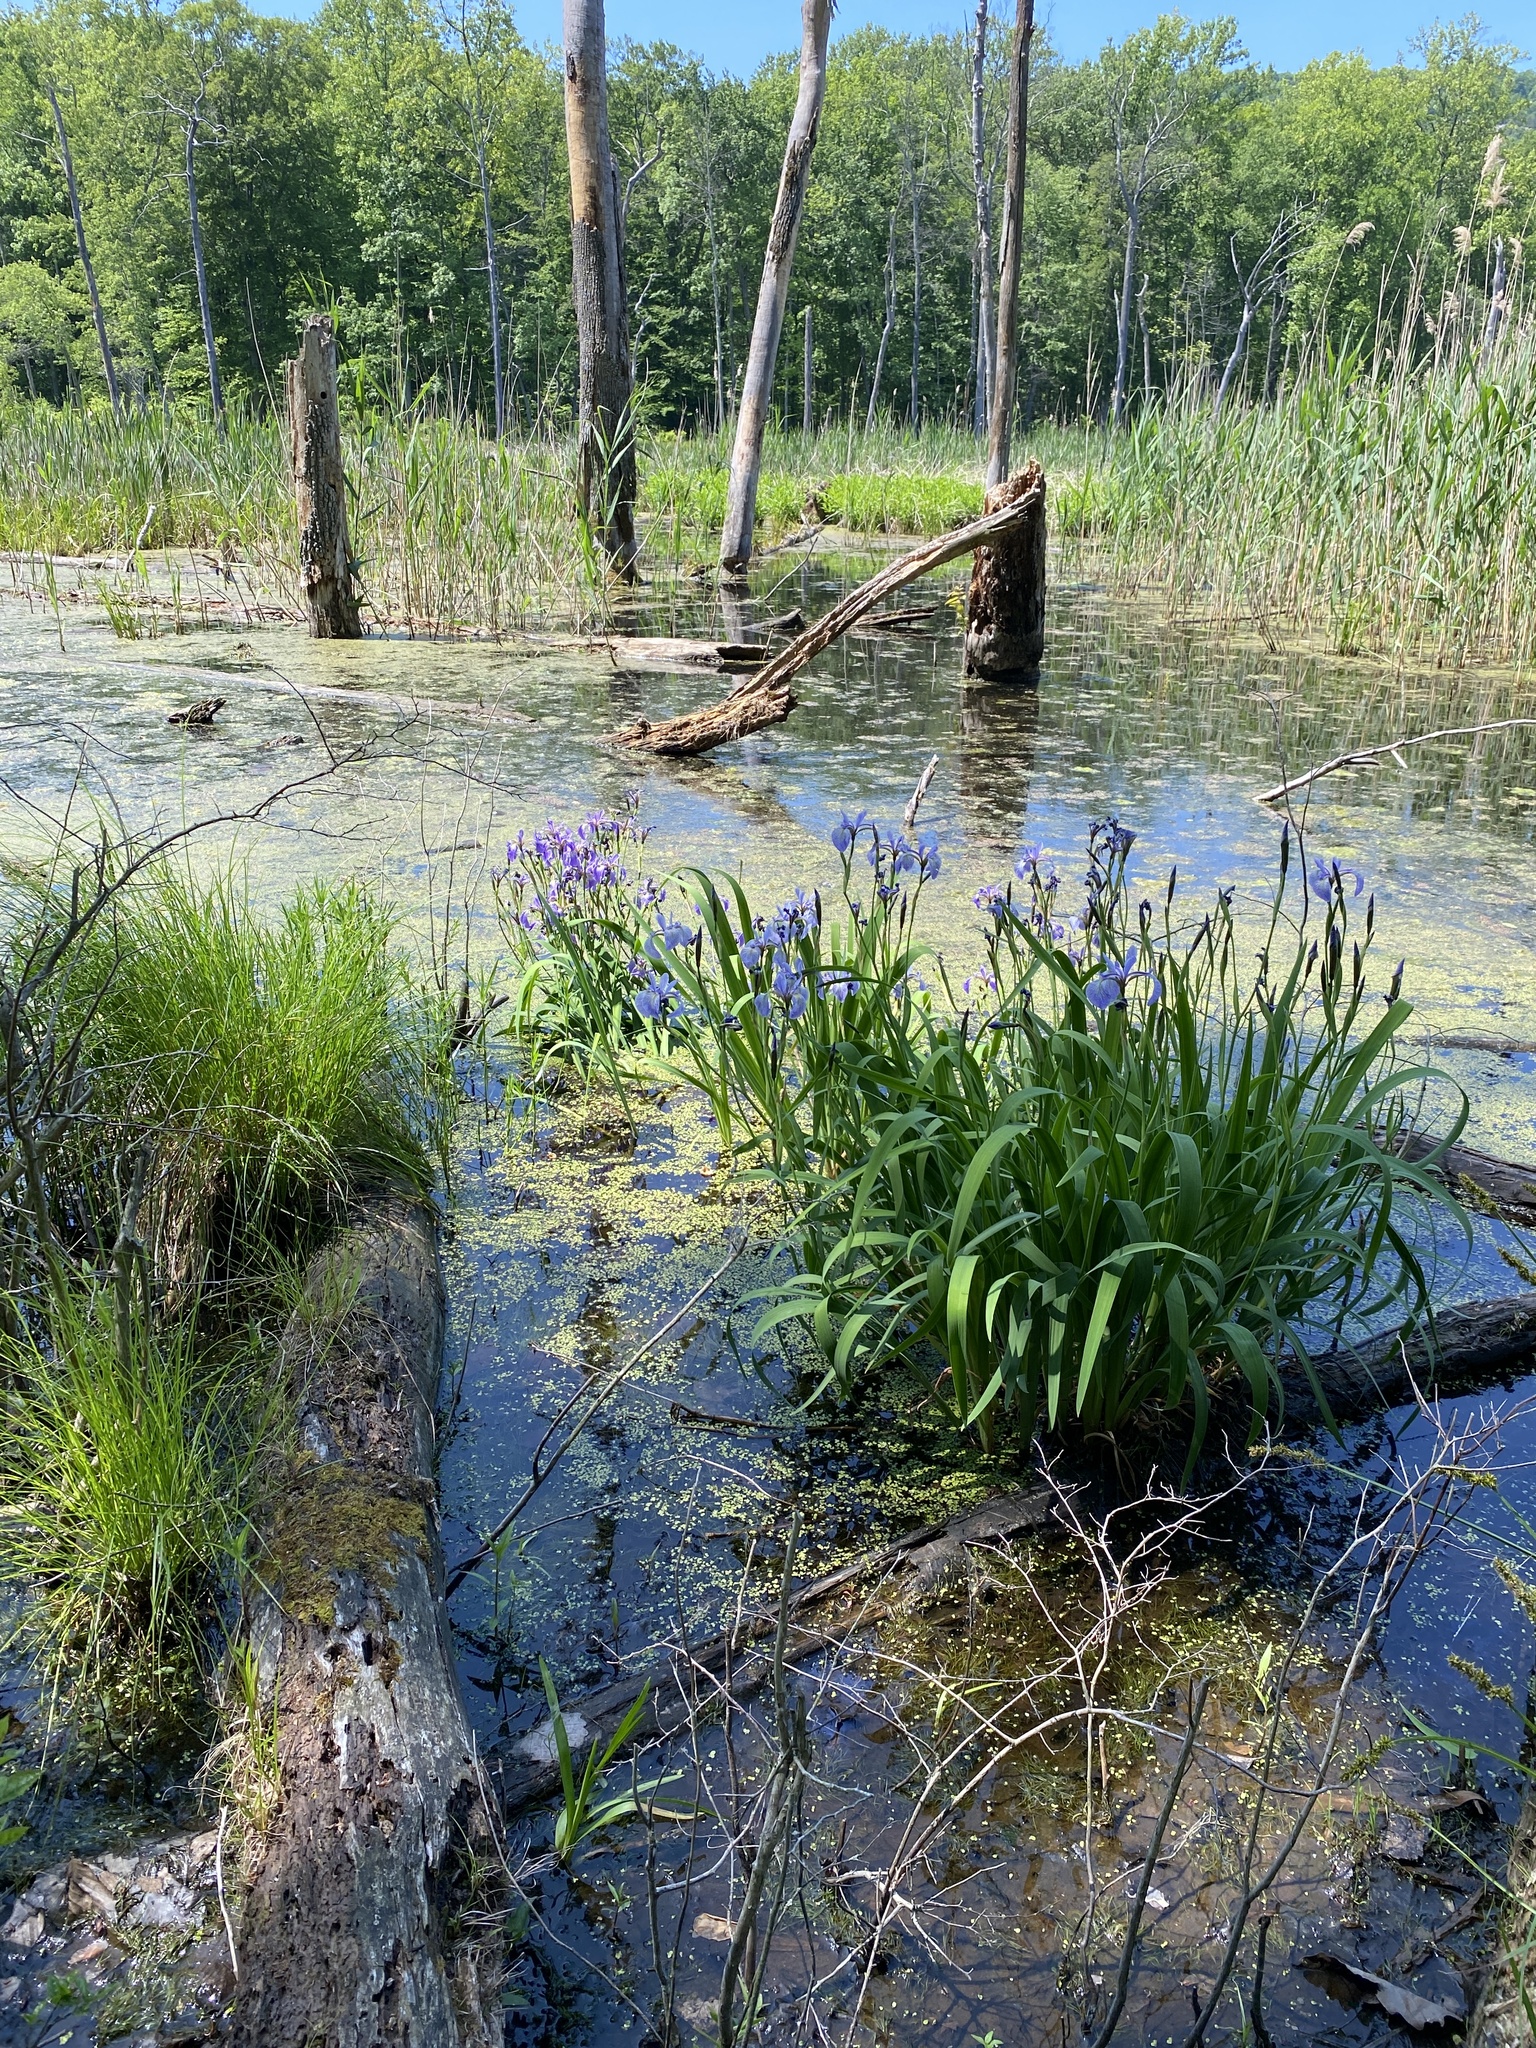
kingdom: Plantae
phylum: Tracheophyta
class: Liliopsida
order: Asparagales
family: Iridaceae
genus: Iris
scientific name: Iris versicolor
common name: Purple iris
